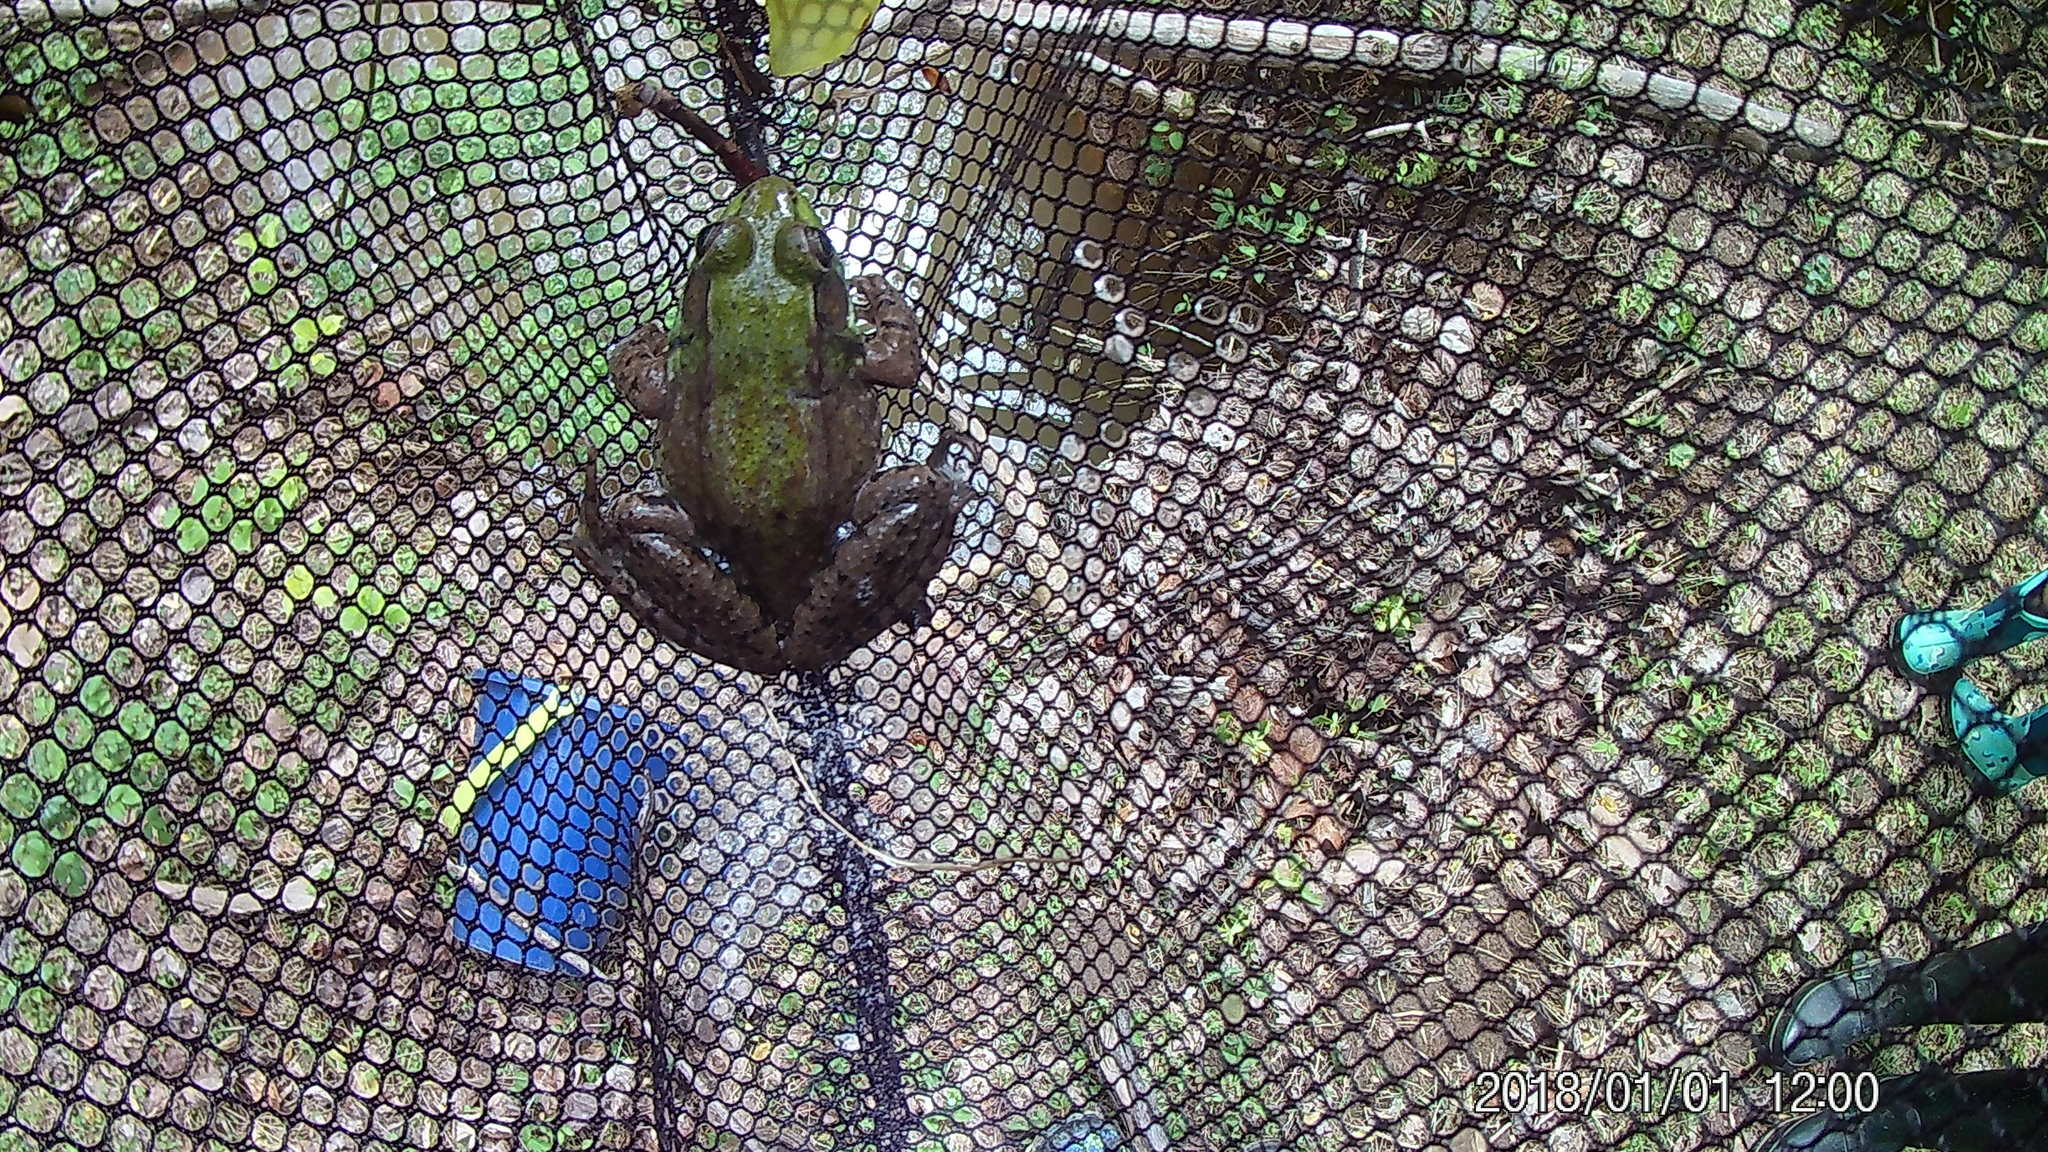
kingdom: Animalia
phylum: Chordata
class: Amphibia
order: Anura
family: Ranidae
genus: Lithobates
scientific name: Lithobates clamitans
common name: Green frog
